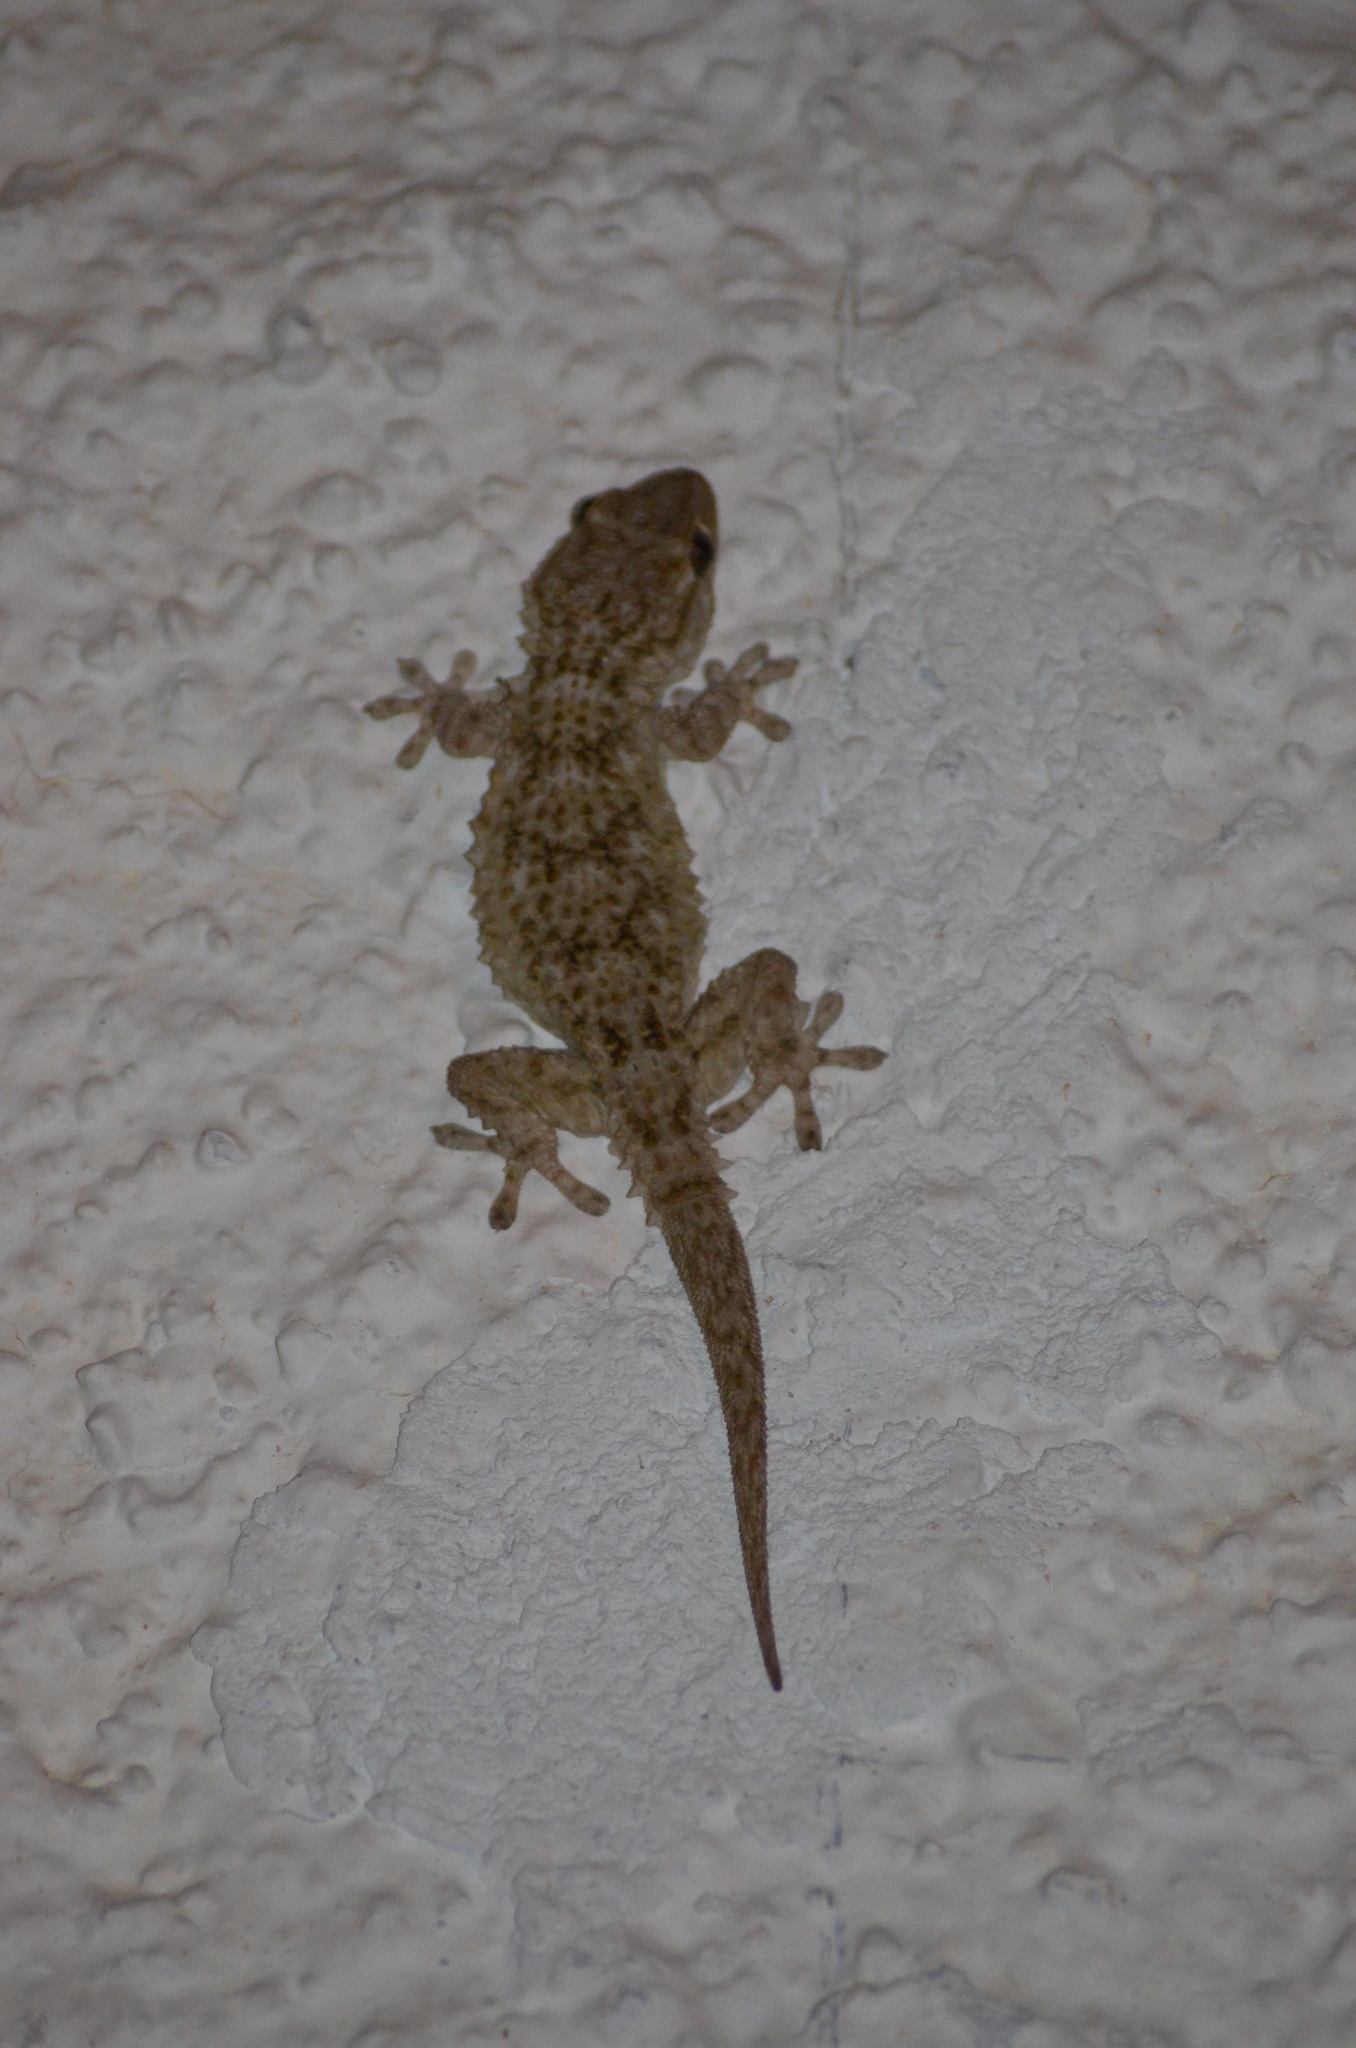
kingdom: Animalia
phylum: Chordata
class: Squamata
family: Phyllodactylidae
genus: Tarentola
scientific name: Tarentola mauritanica
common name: Moorish gecko
